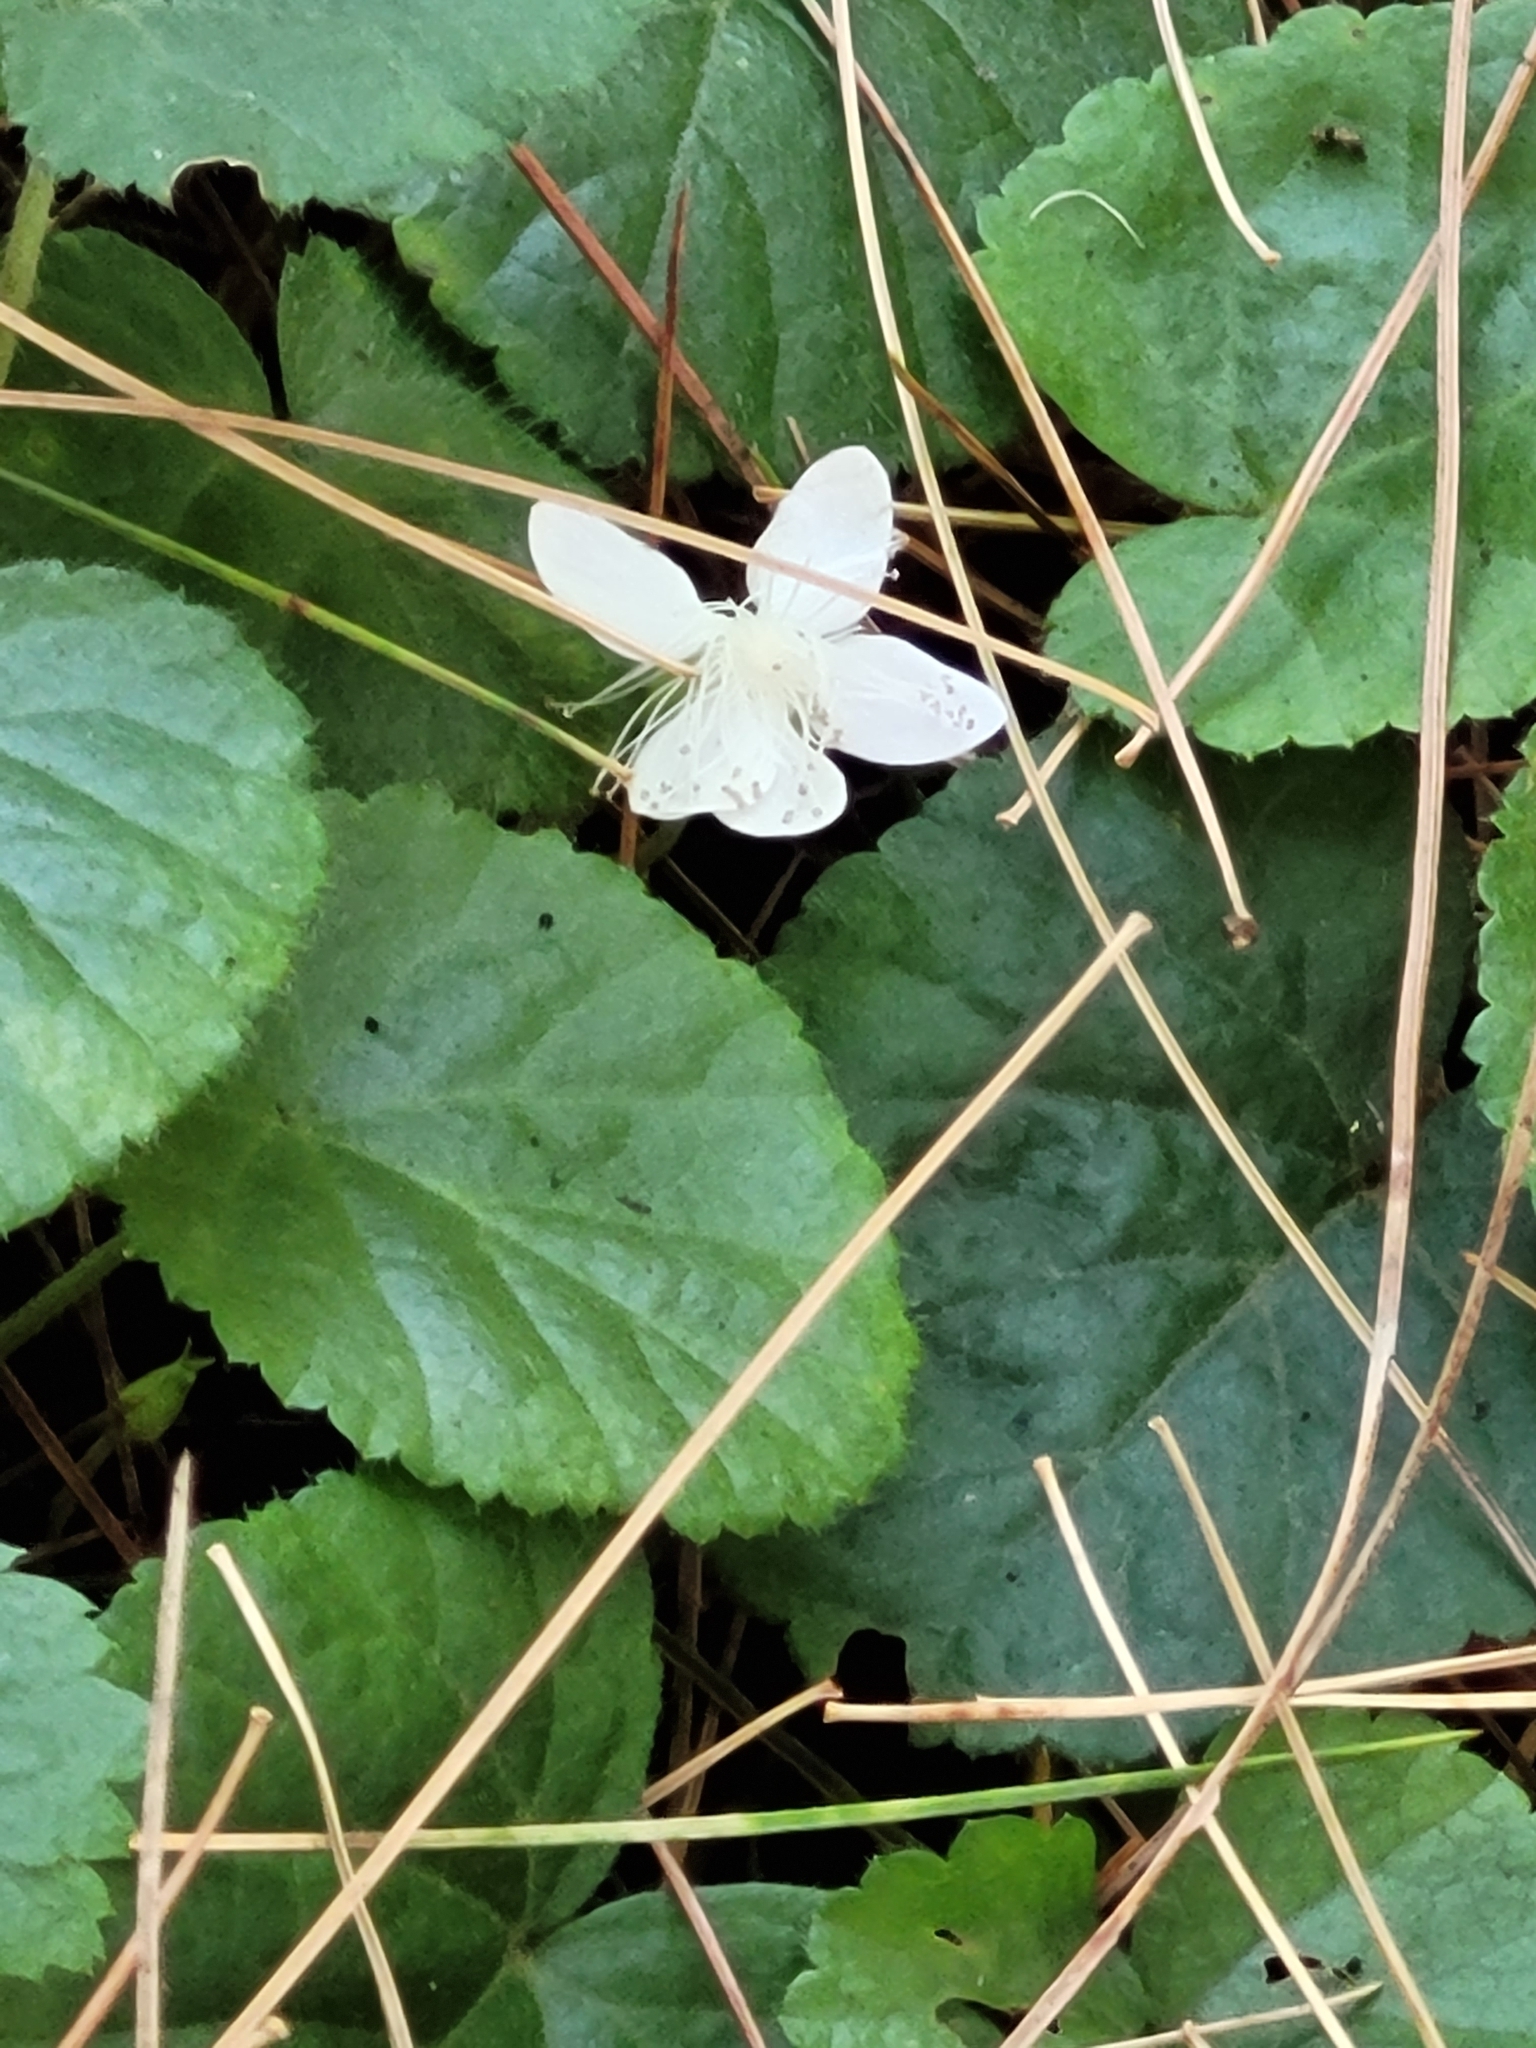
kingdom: Plantae
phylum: Tracheophyta
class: Magnoliopsida
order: Rosales
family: Rosaceae
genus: Dalibarda
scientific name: Dalibarda repens
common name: Dewdrop
